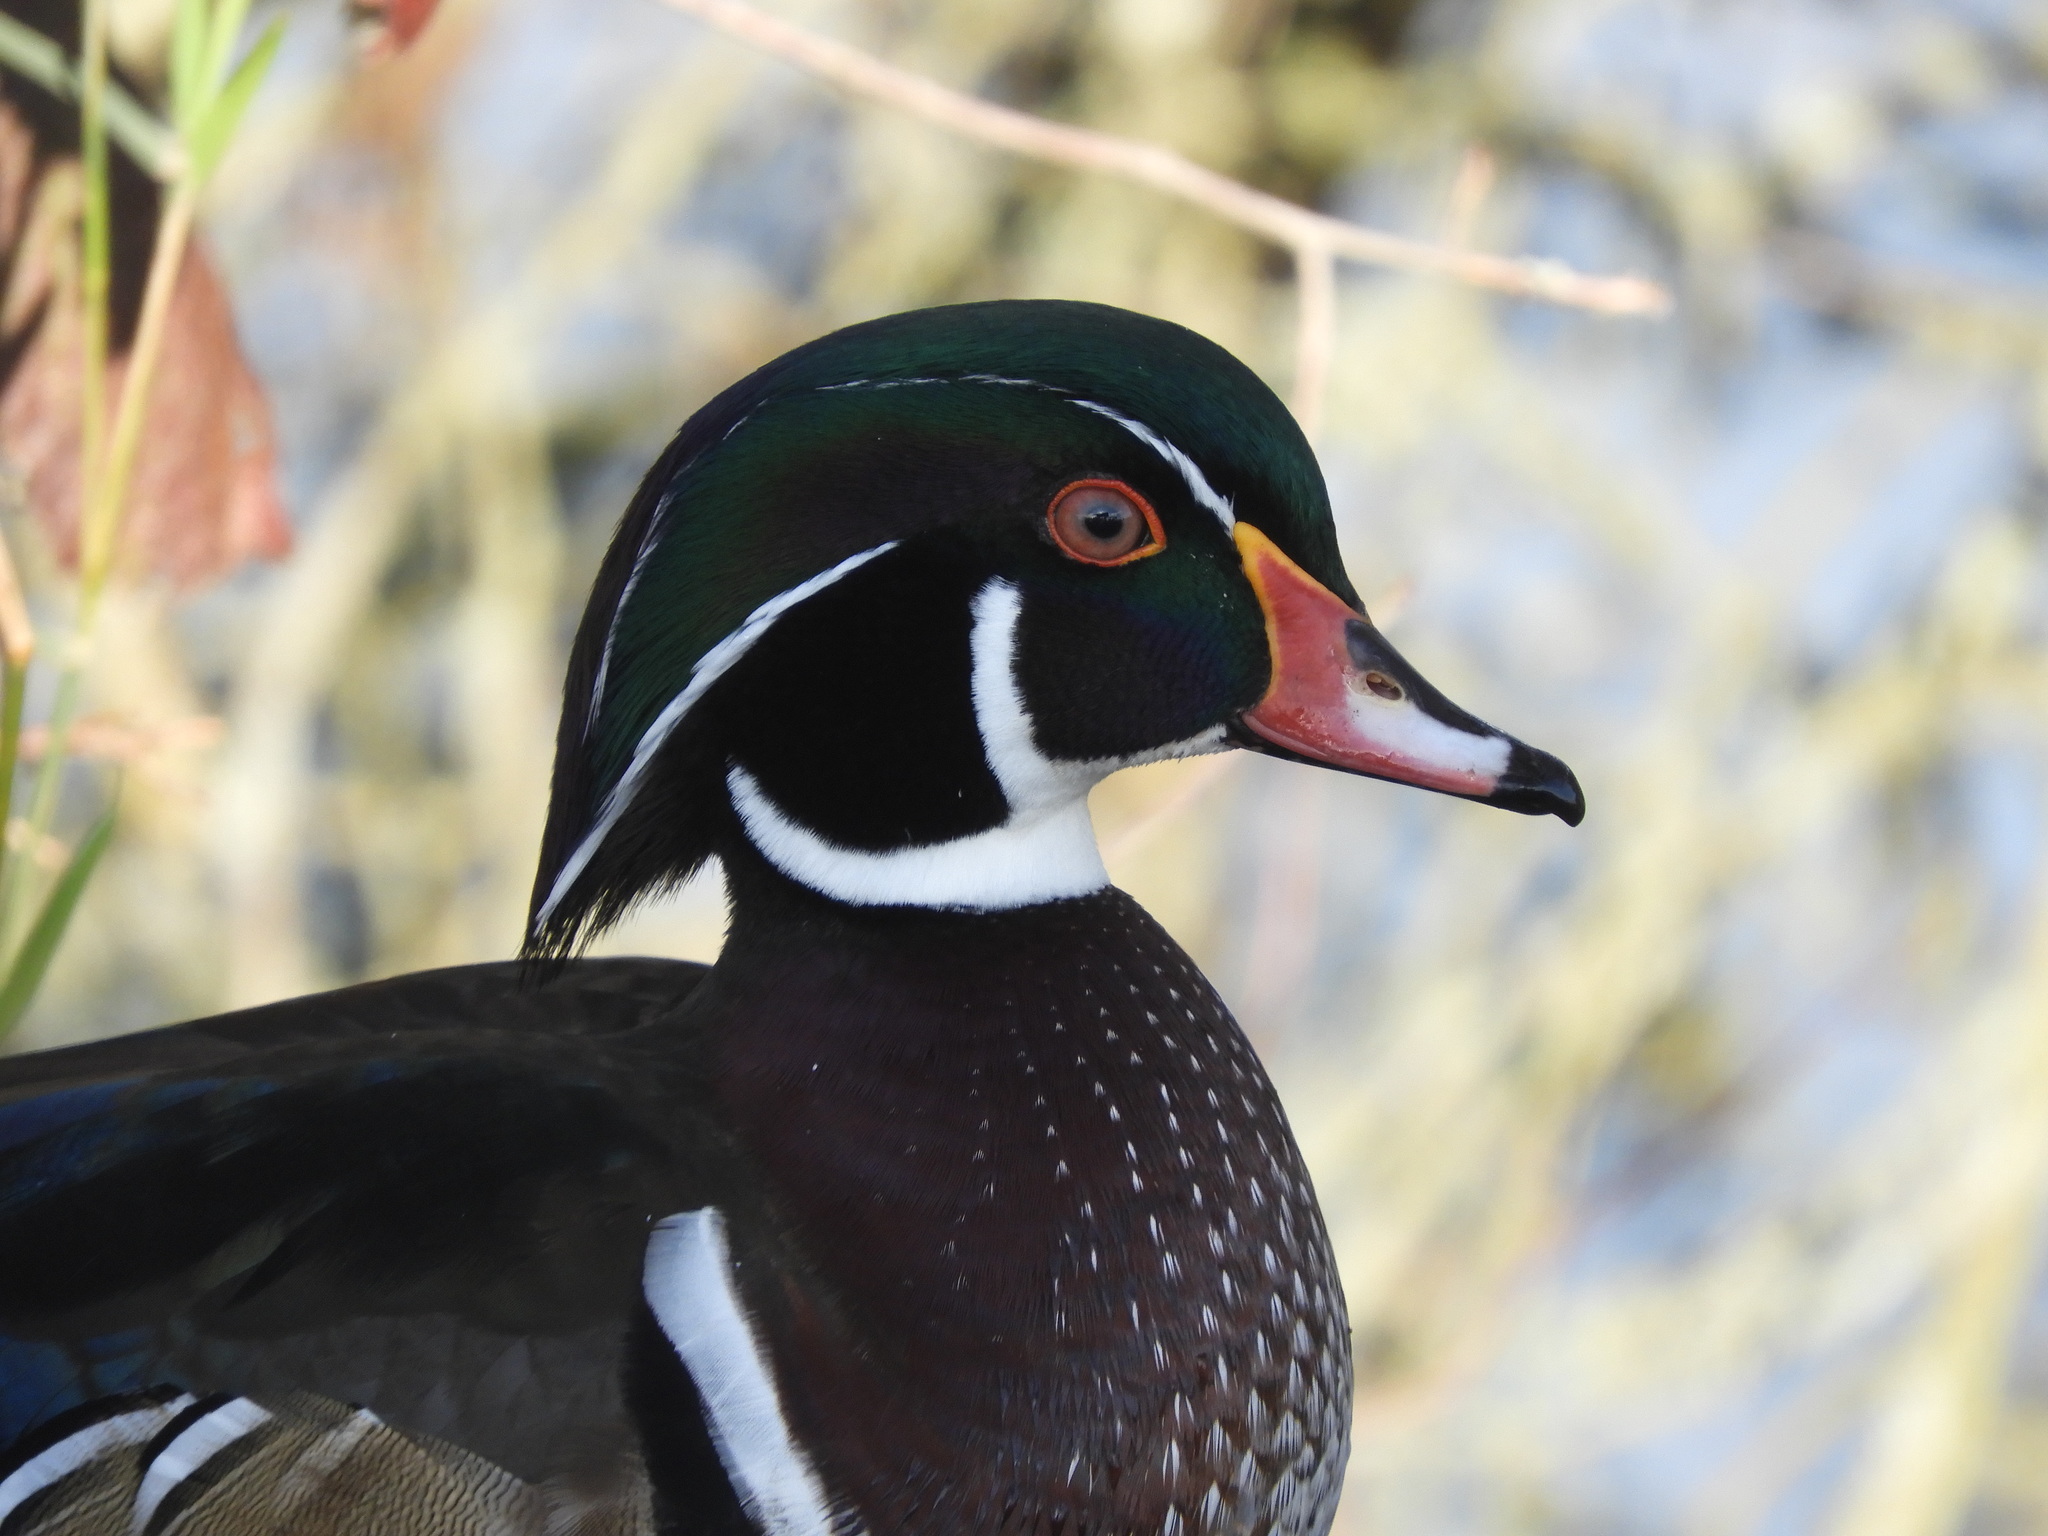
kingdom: Animalia
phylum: Chordata
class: Aves
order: Anseriformes
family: Anatidae
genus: Aix
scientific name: Aix sponsa
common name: Wood duck
